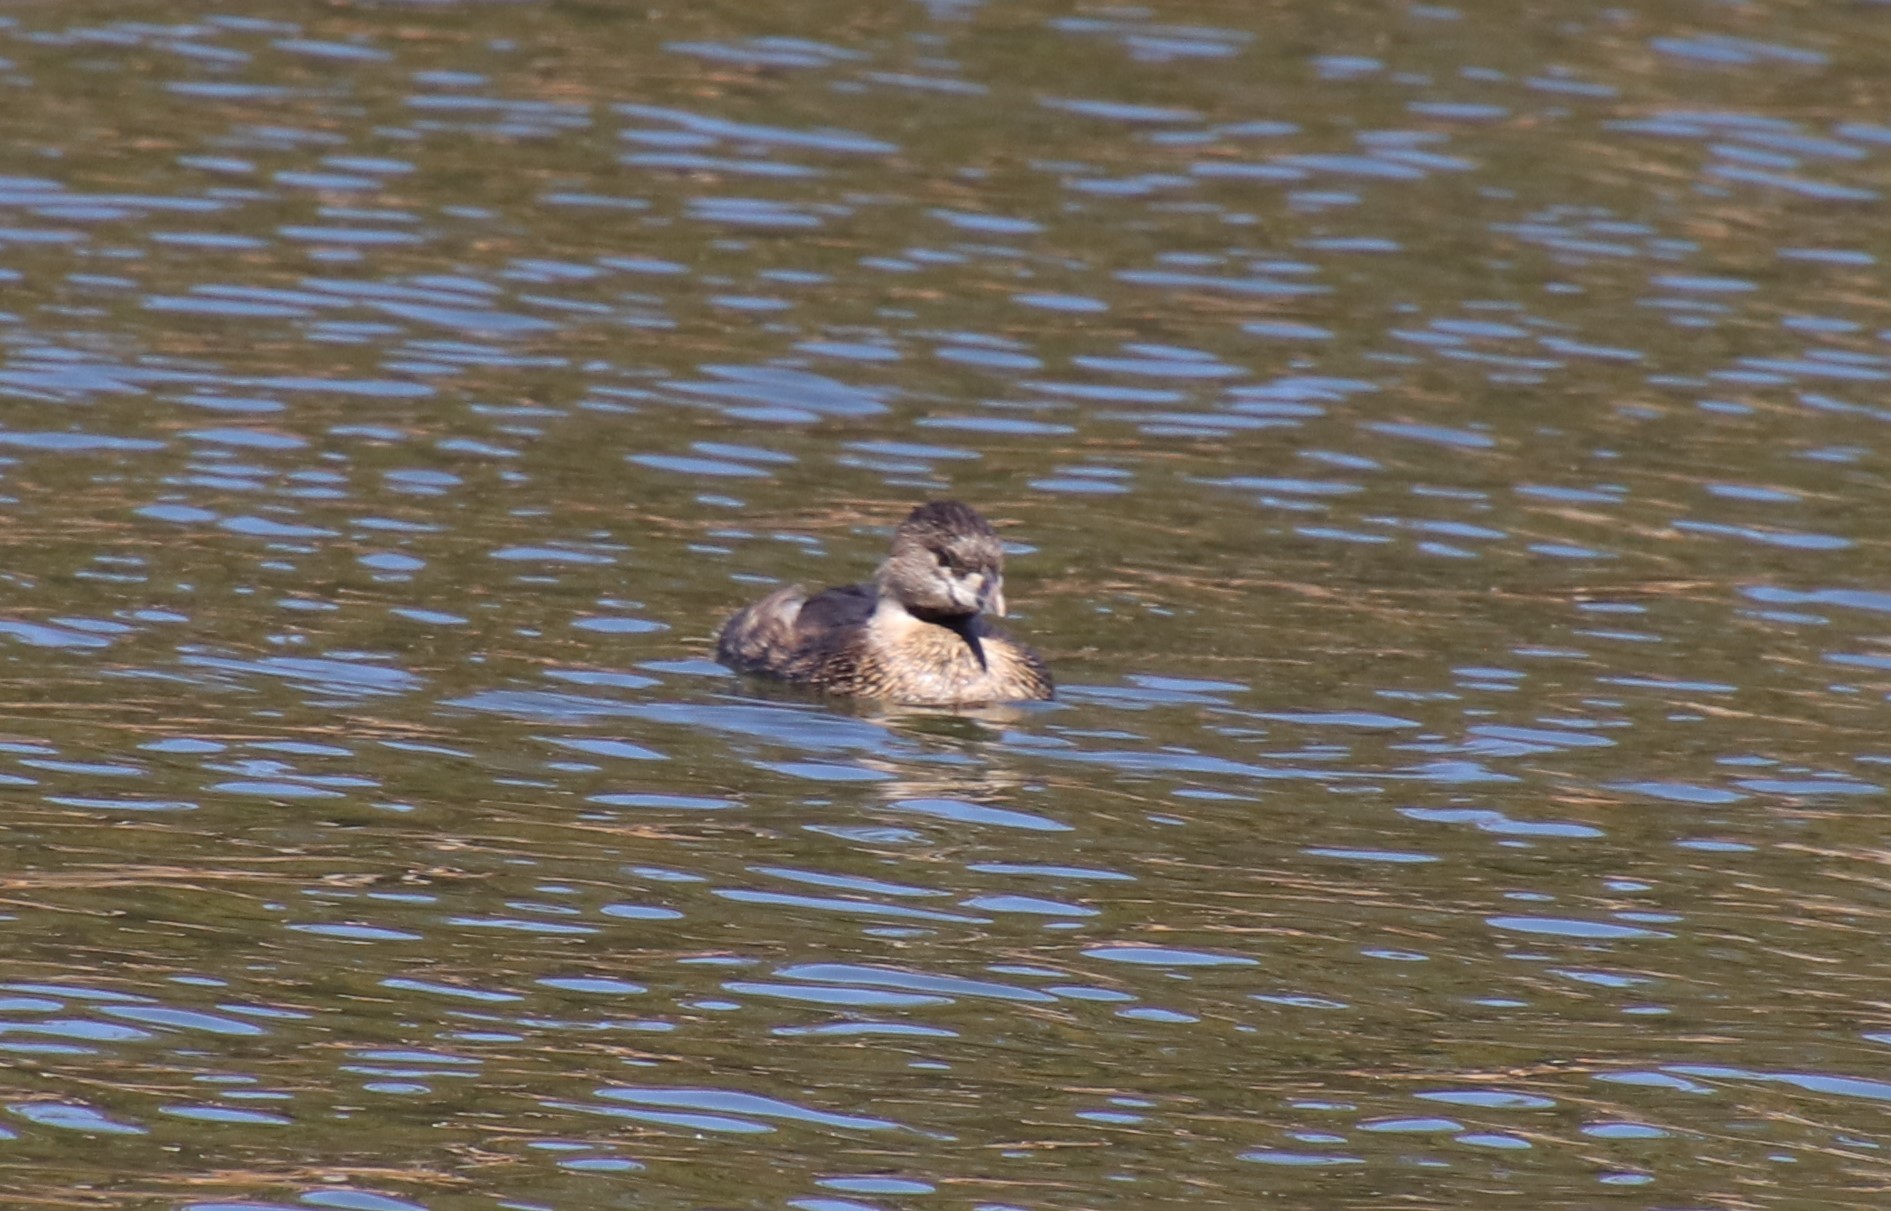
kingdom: Animalia
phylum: Chordata
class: Aves
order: Podicipediformes
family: Podicipedidae
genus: Podilymbus
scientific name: Podilymbus podiceps
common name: Pied-billed grebe
